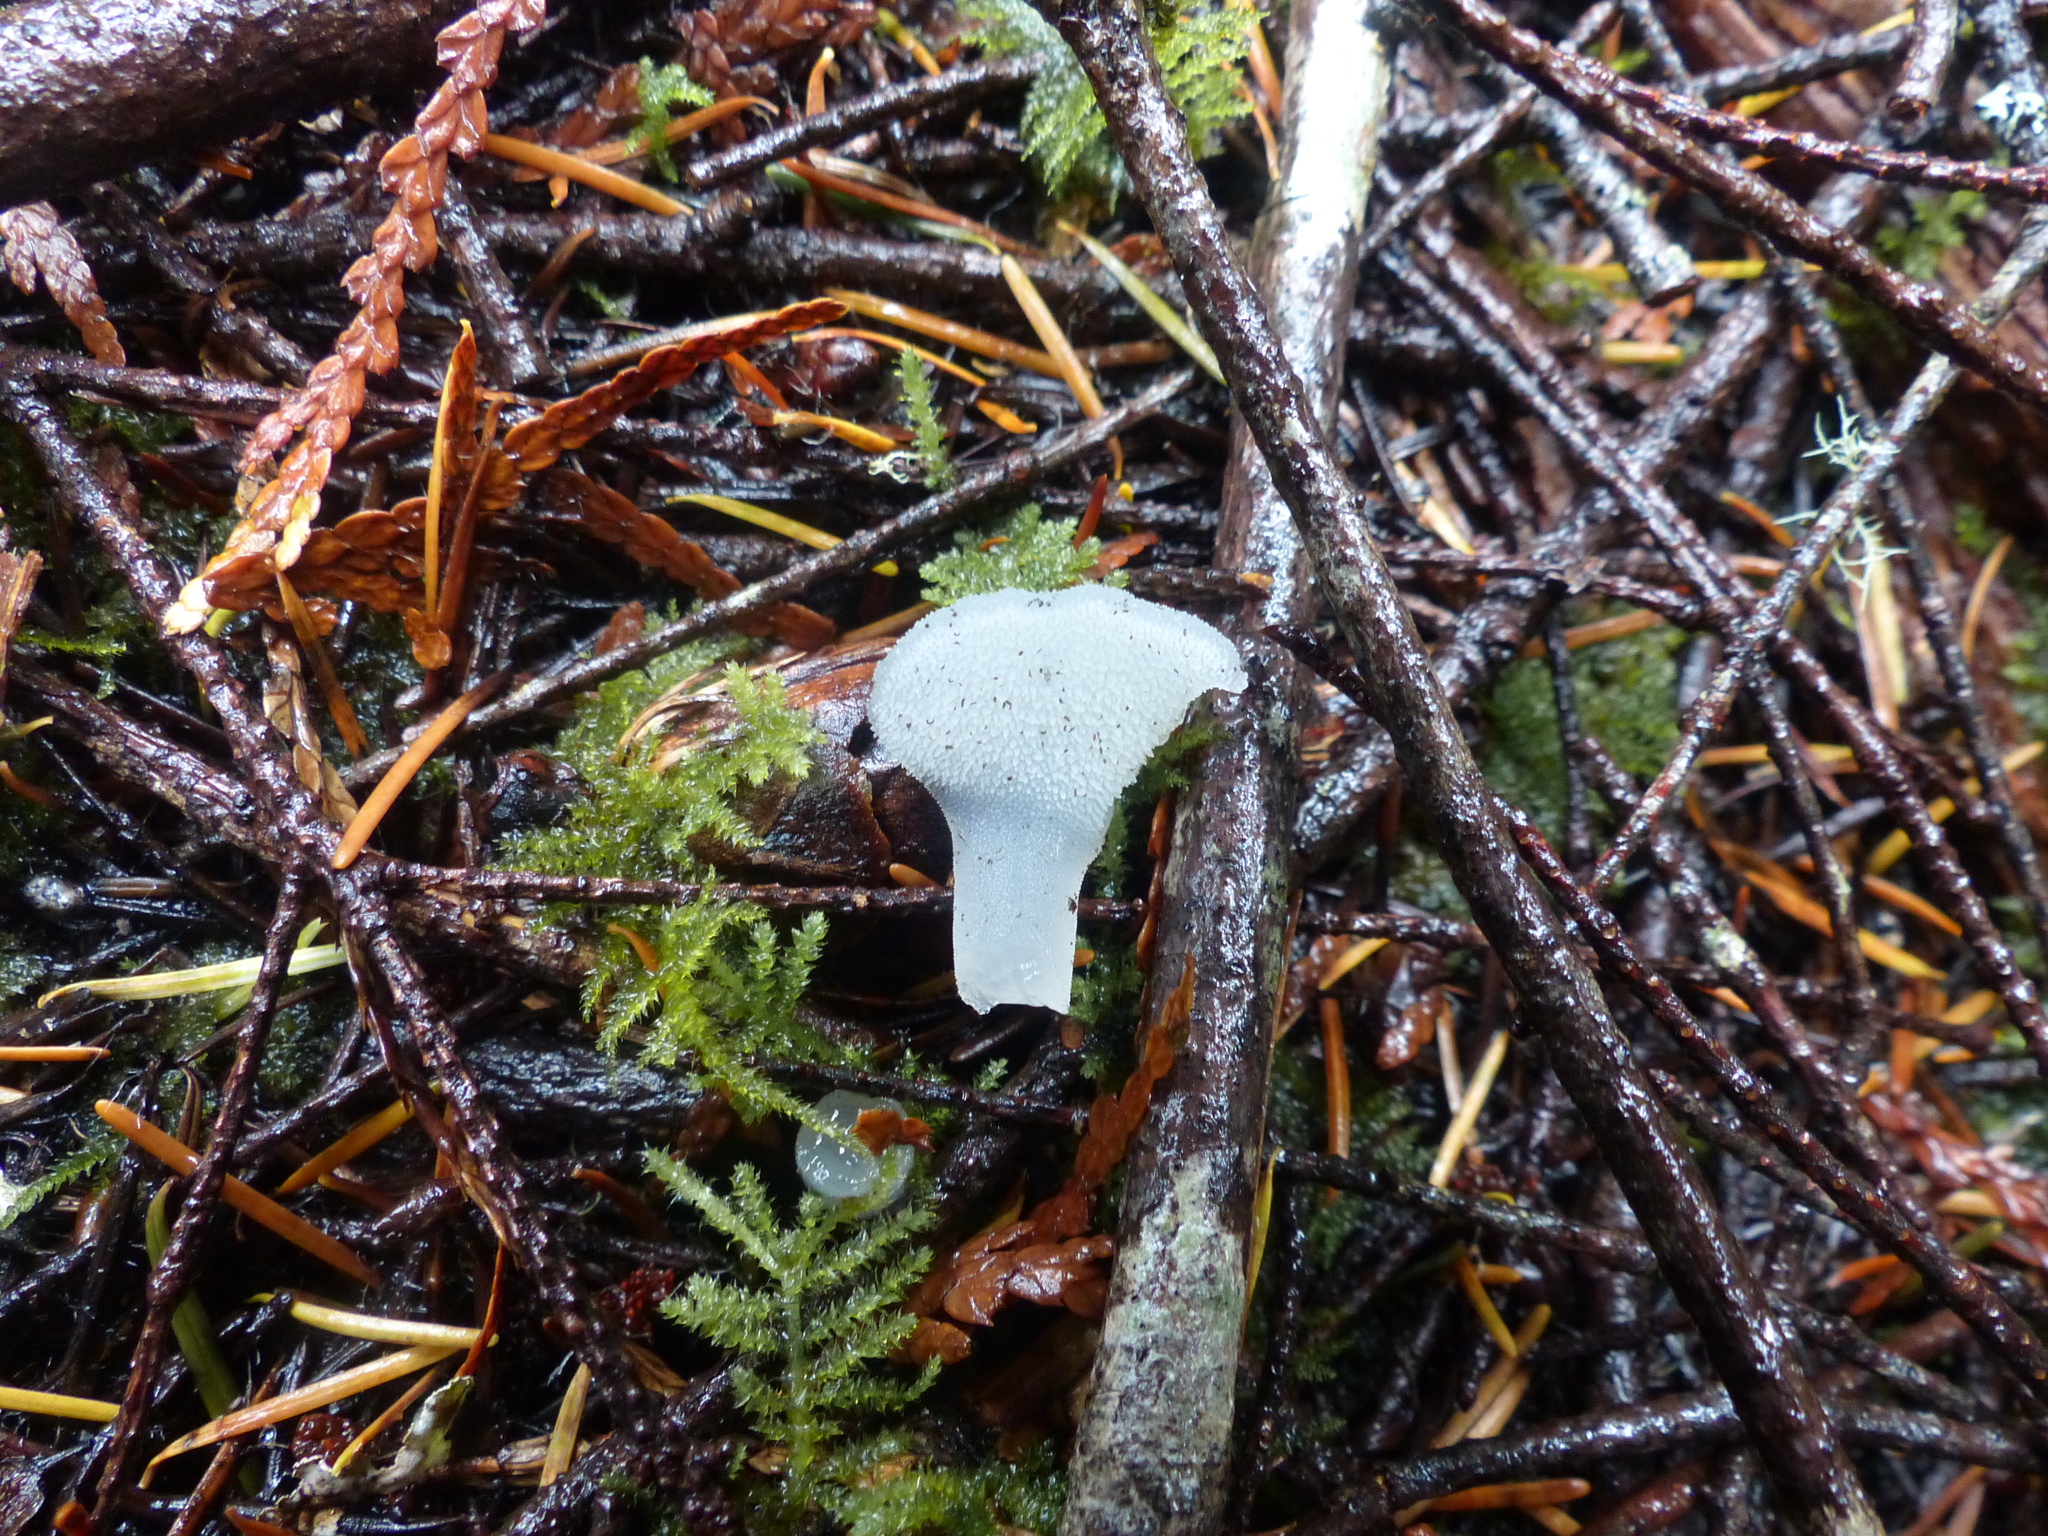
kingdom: Fungi
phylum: Basidiomycota
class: Agaricomycetes
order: Auriculariales
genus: Pseudohydnum
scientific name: Pseudohydnum gelatinosum
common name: Jelly tongue
